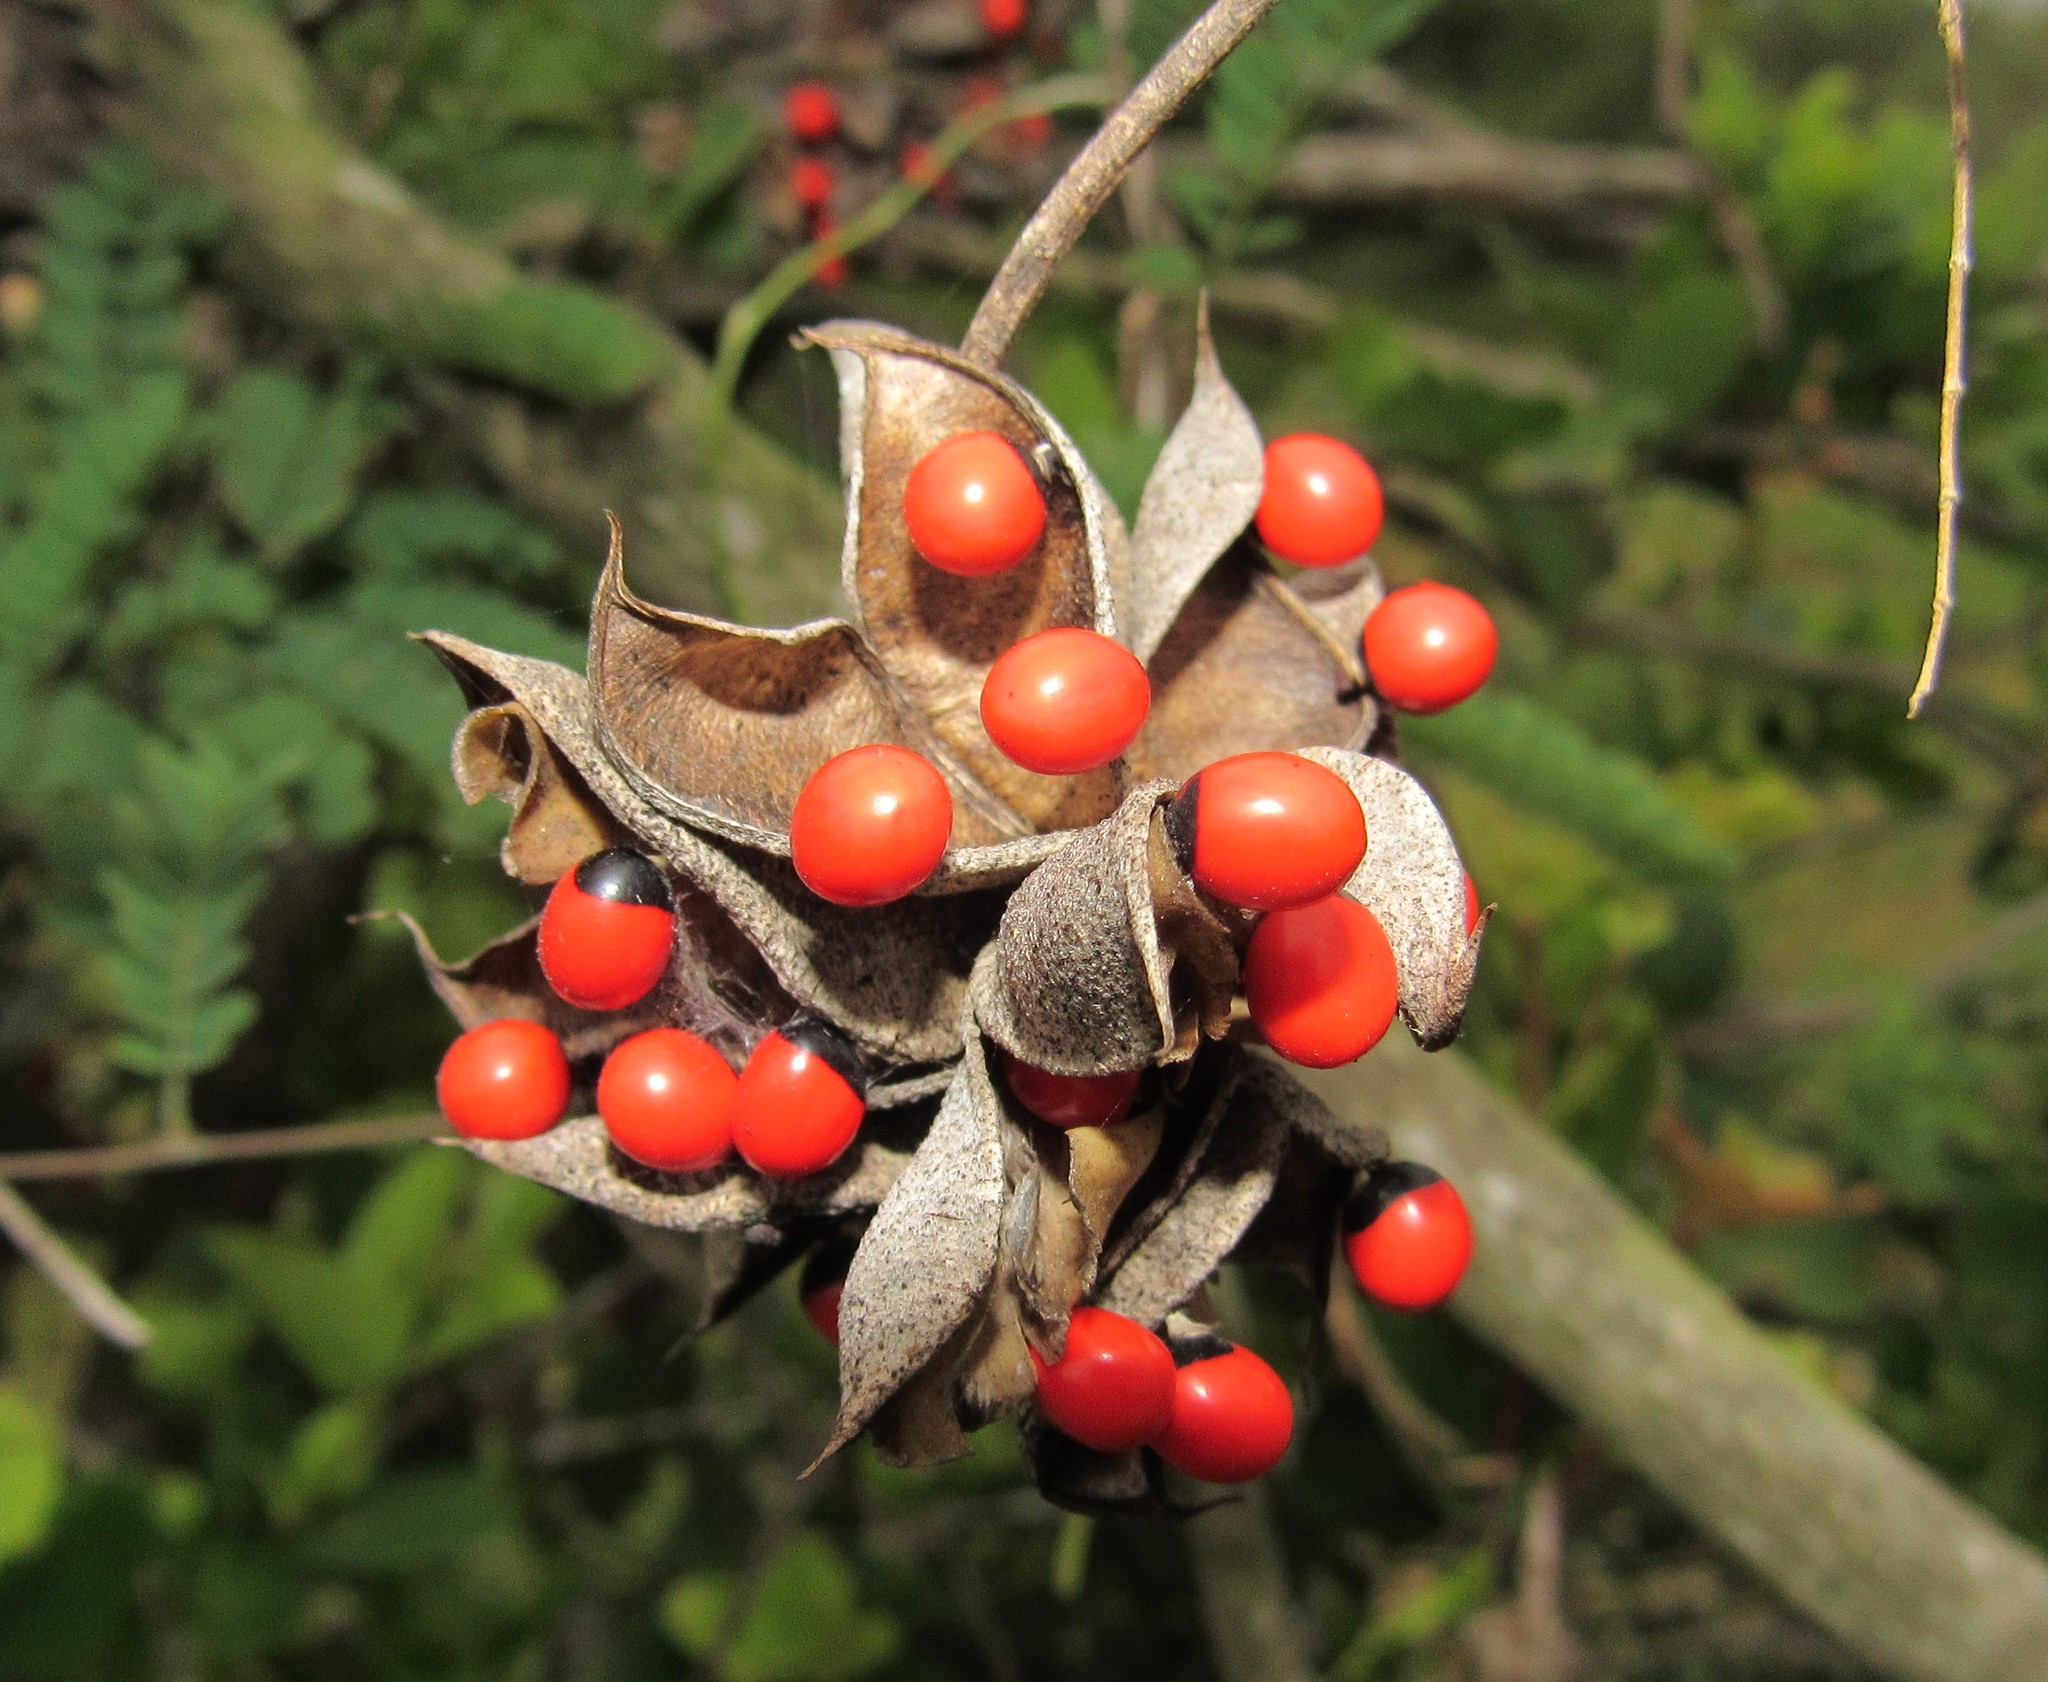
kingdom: Plantae
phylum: Tracheophyta
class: Magnoliopsida
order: Fabales
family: Fabaceae
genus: Abrus
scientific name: Abrus precatorius
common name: Rosarypea
